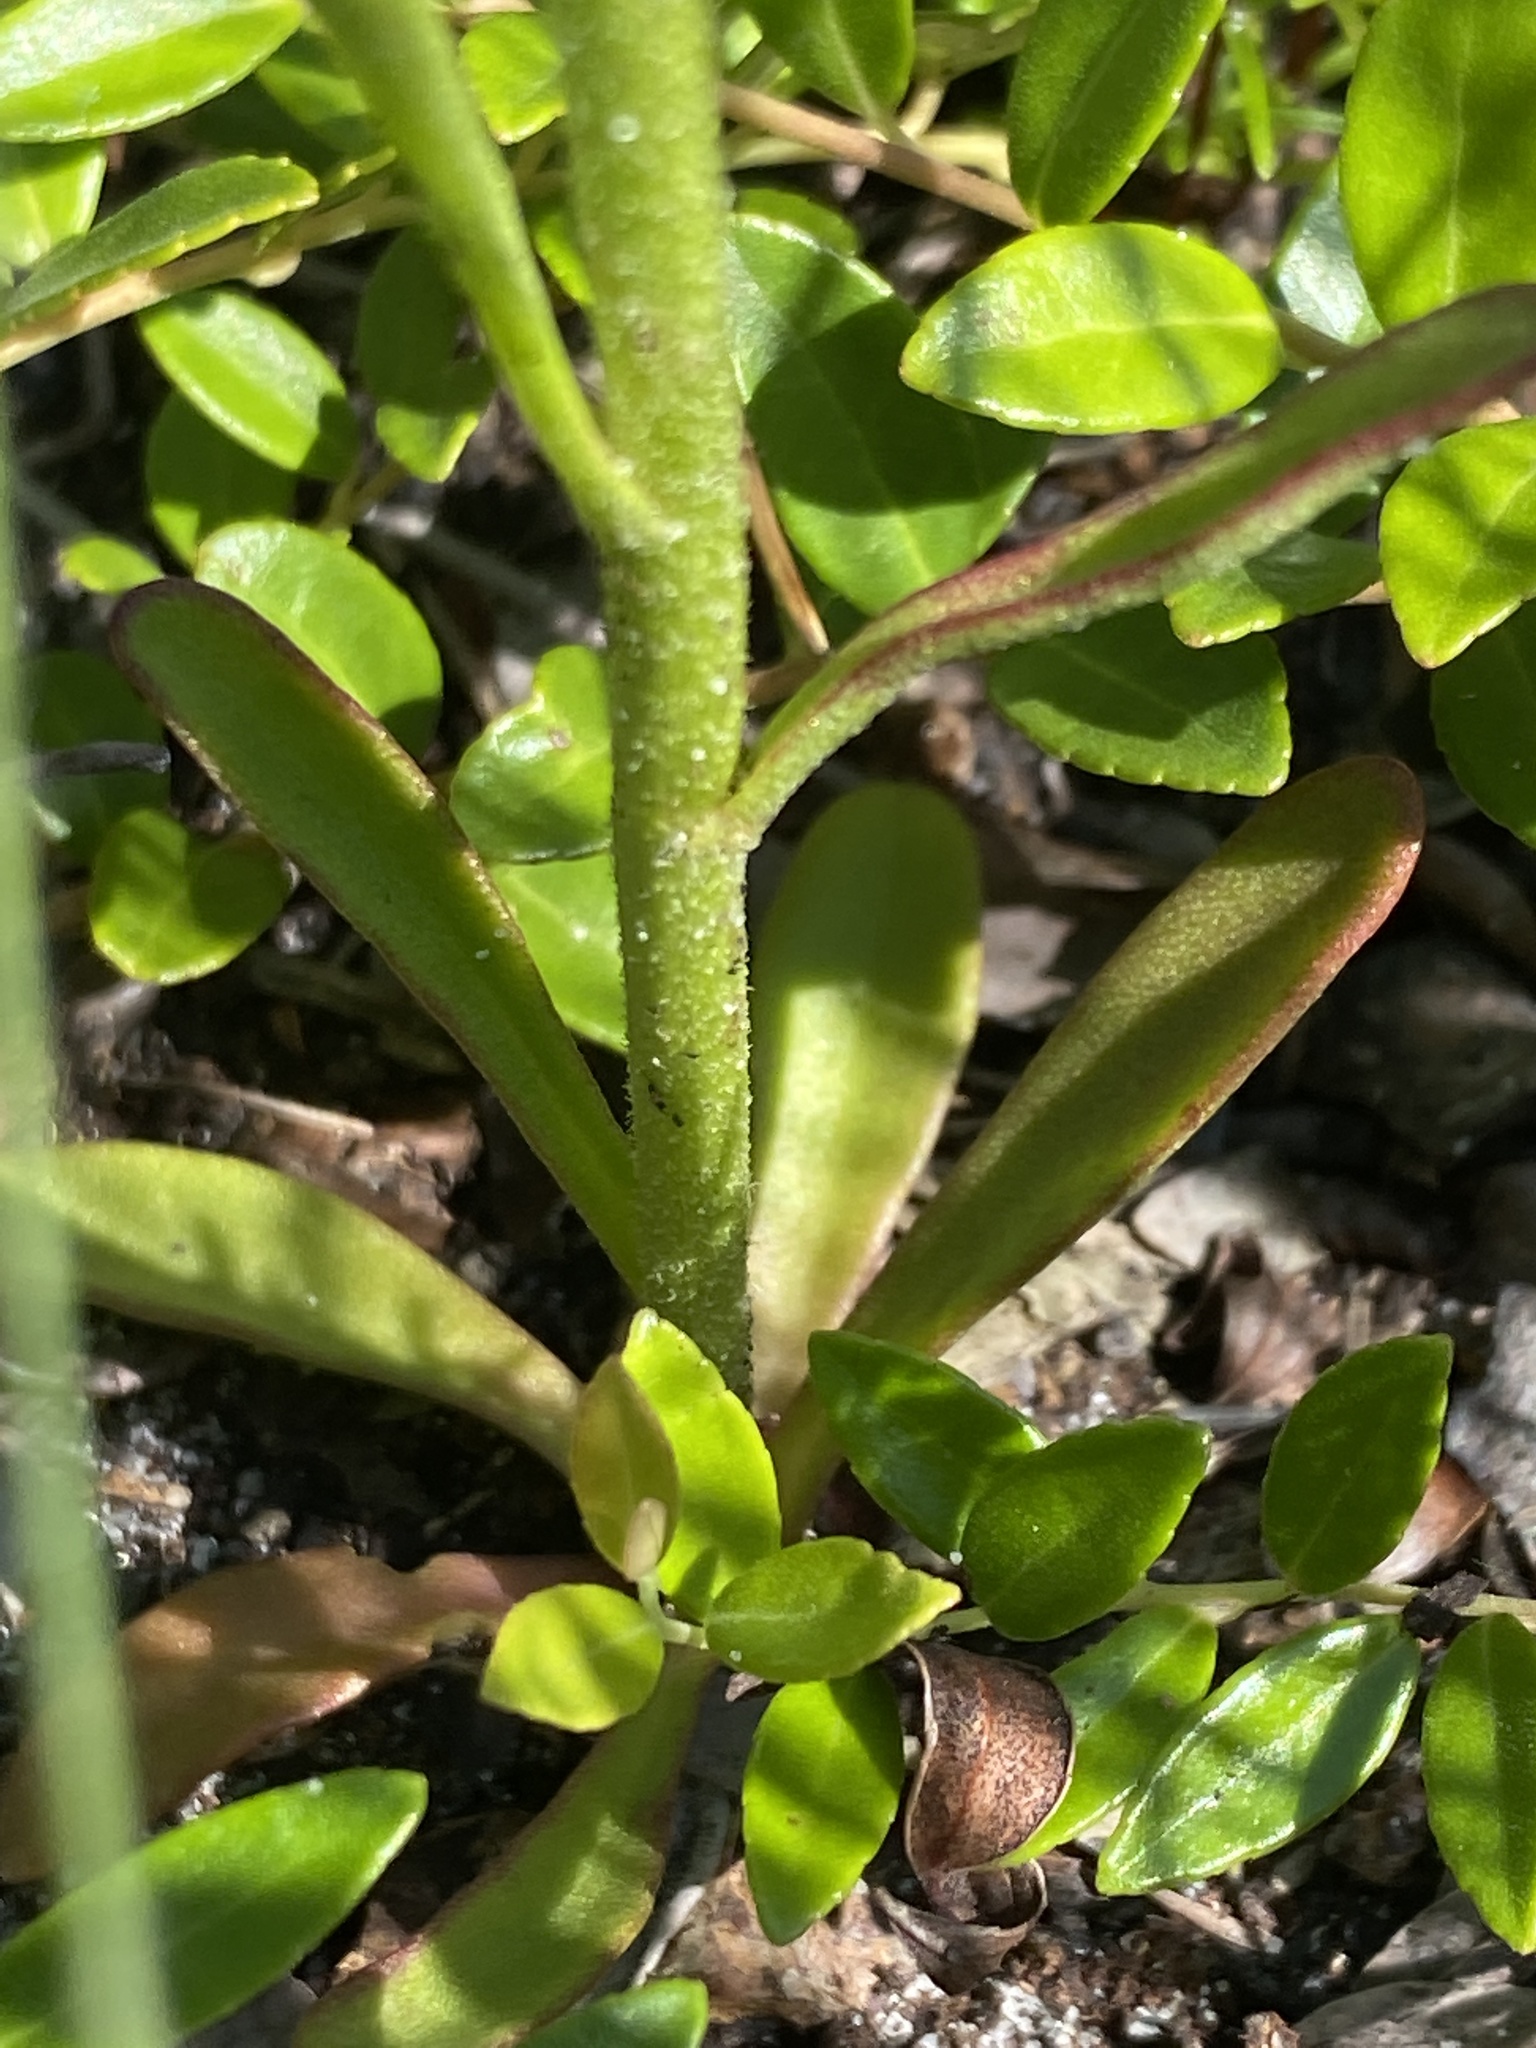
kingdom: Plantae
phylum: Tracheophyta
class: Magnoliopsida
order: Asterales
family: Asteraceae
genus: Balduina
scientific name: Balduina uniflora
